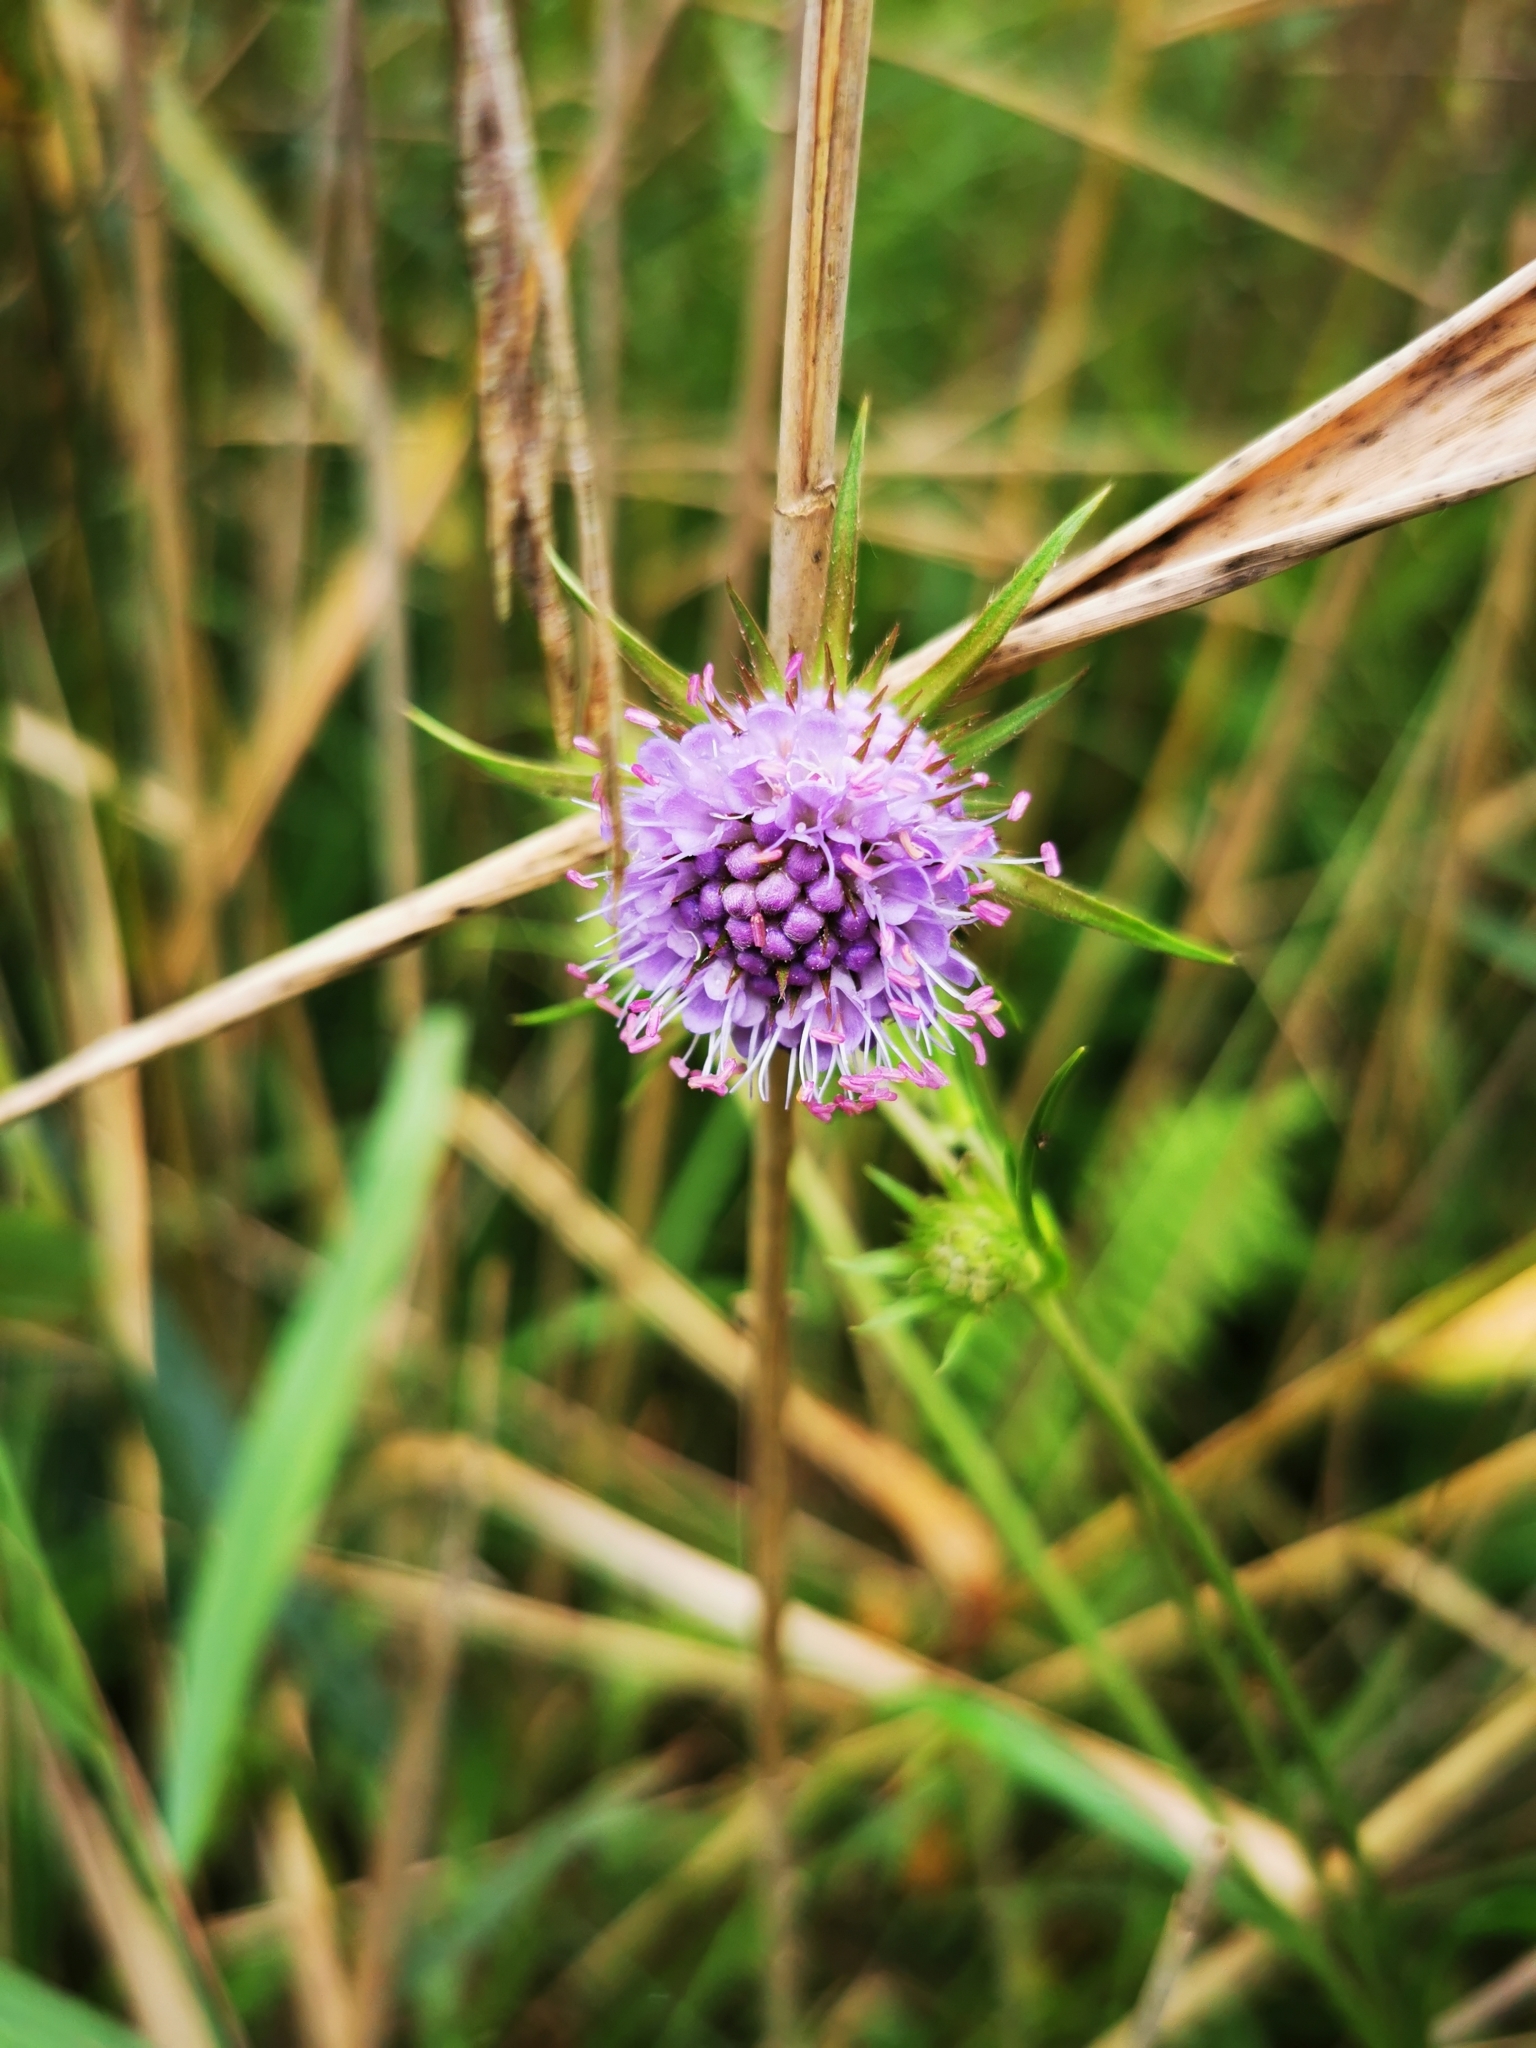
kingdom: Plantae
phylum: Tracheophyta
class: Magnoliopsida
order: Dipsacales
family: Caprifoliaceae
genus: Succisa
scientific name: Succisa pratensis
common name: Devil's-bit
